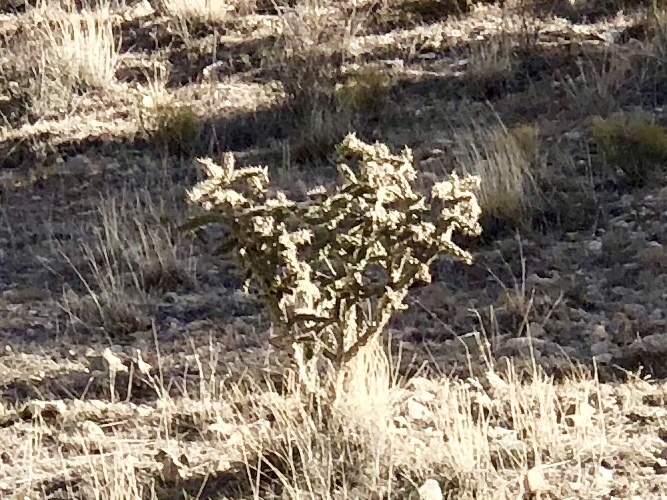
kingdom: Plantae
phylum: Tracheophyta
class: Magnoliopsida
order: Caryophyllales
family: Cactaceae
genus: Cylindropuntia
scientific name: Cylindropuntia imbricata
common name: Candelabrum cactus
